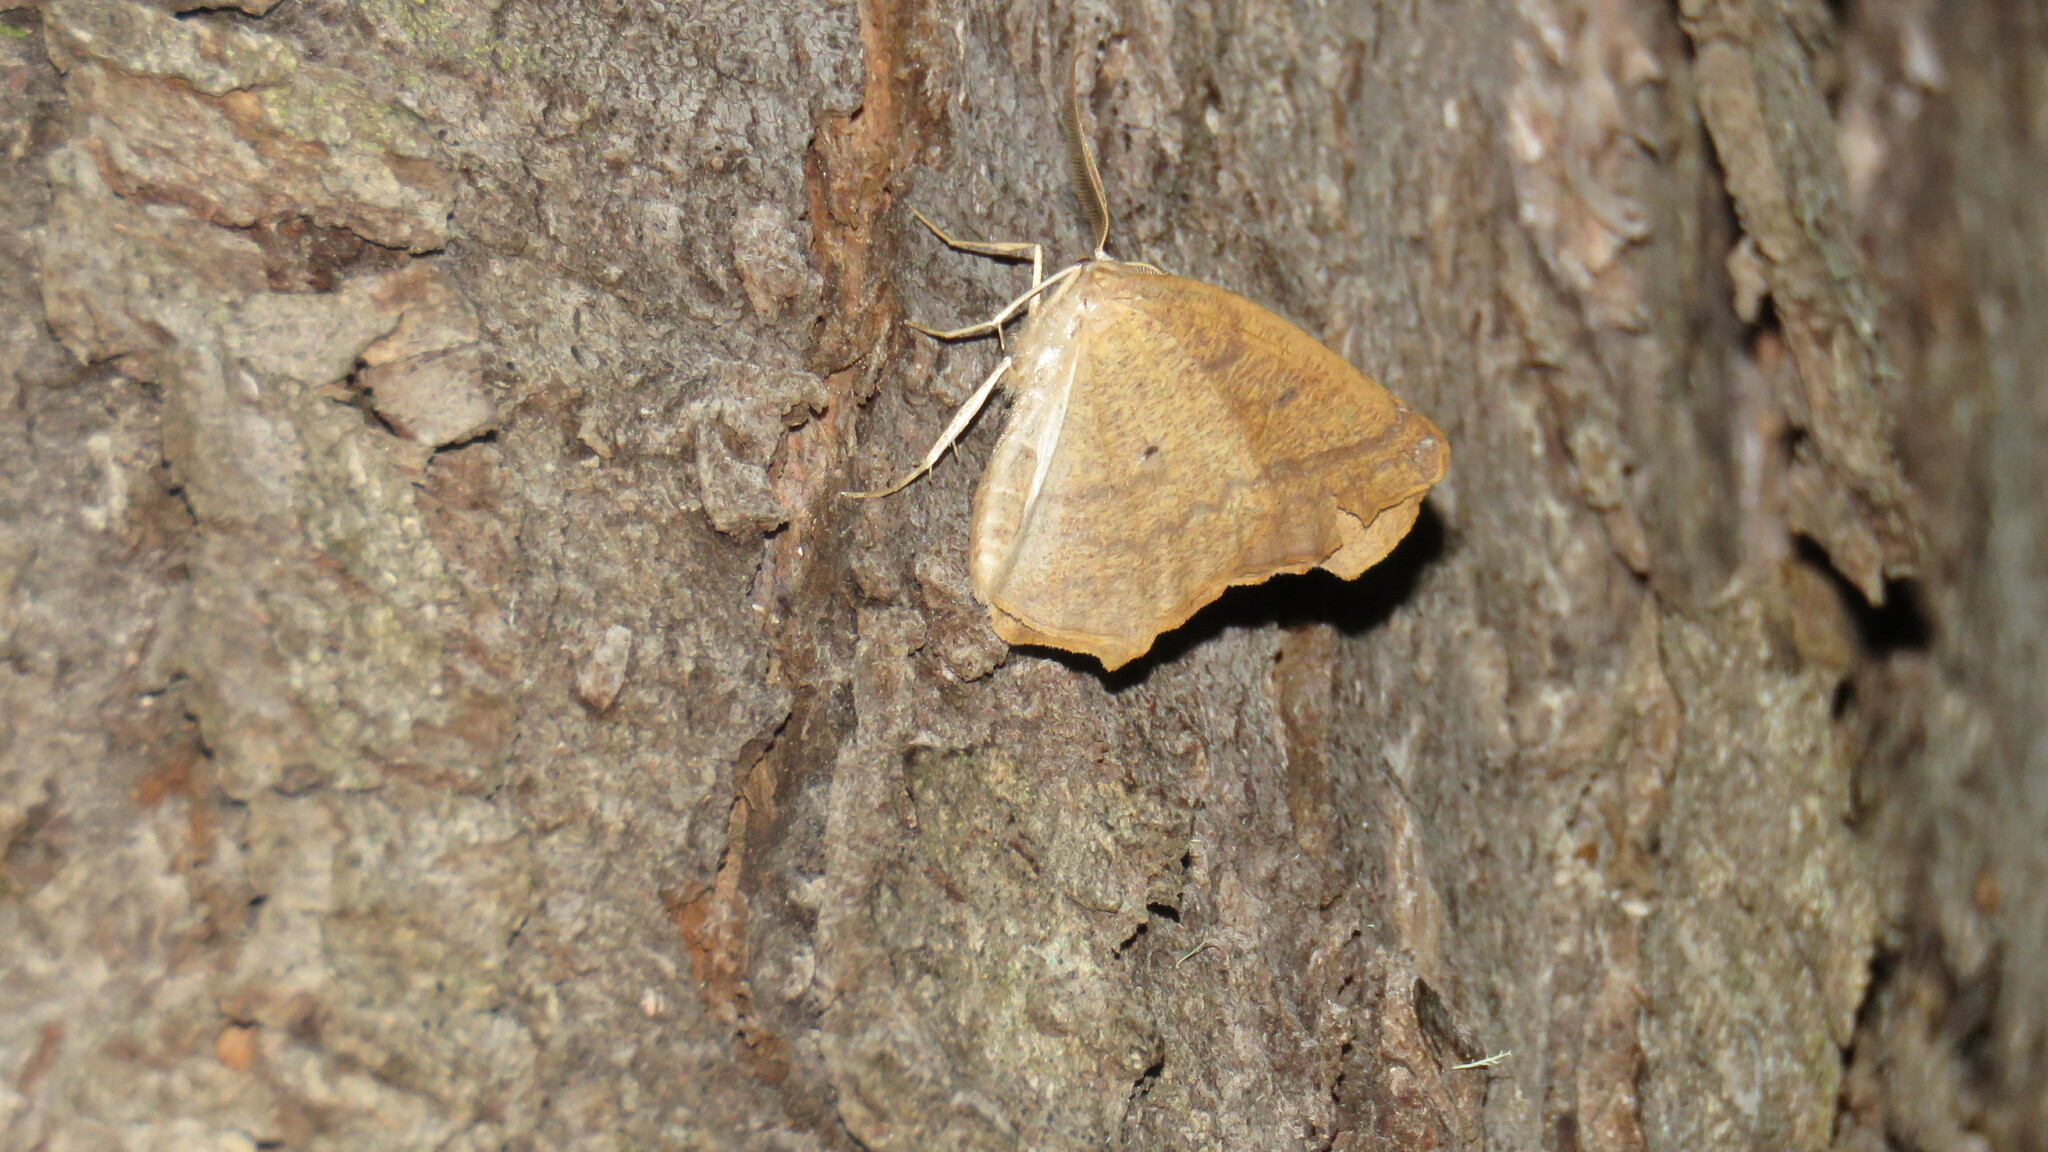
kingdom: Animalia
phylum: Arthropoda
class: Insecta
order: Lepidoptera
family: Geometridae
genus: Syncirsodes
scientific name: Syncirsodes primata
